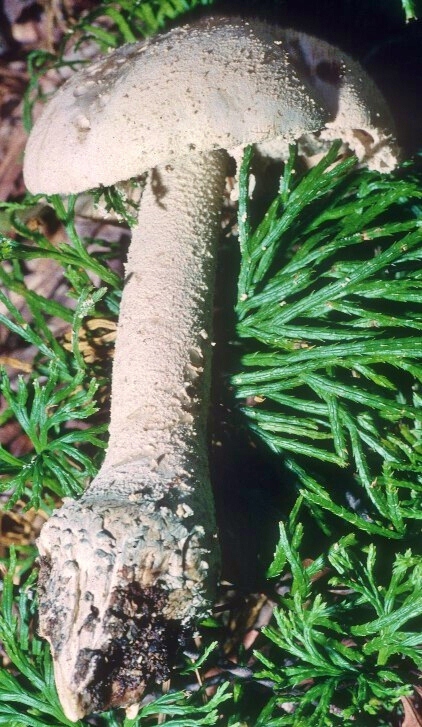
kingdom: Fungi
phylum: Basidiomycota
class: Agaricomycetes
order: Agaricales
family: Amanitaceae
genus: Amanita
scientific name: Amanita pelioma
